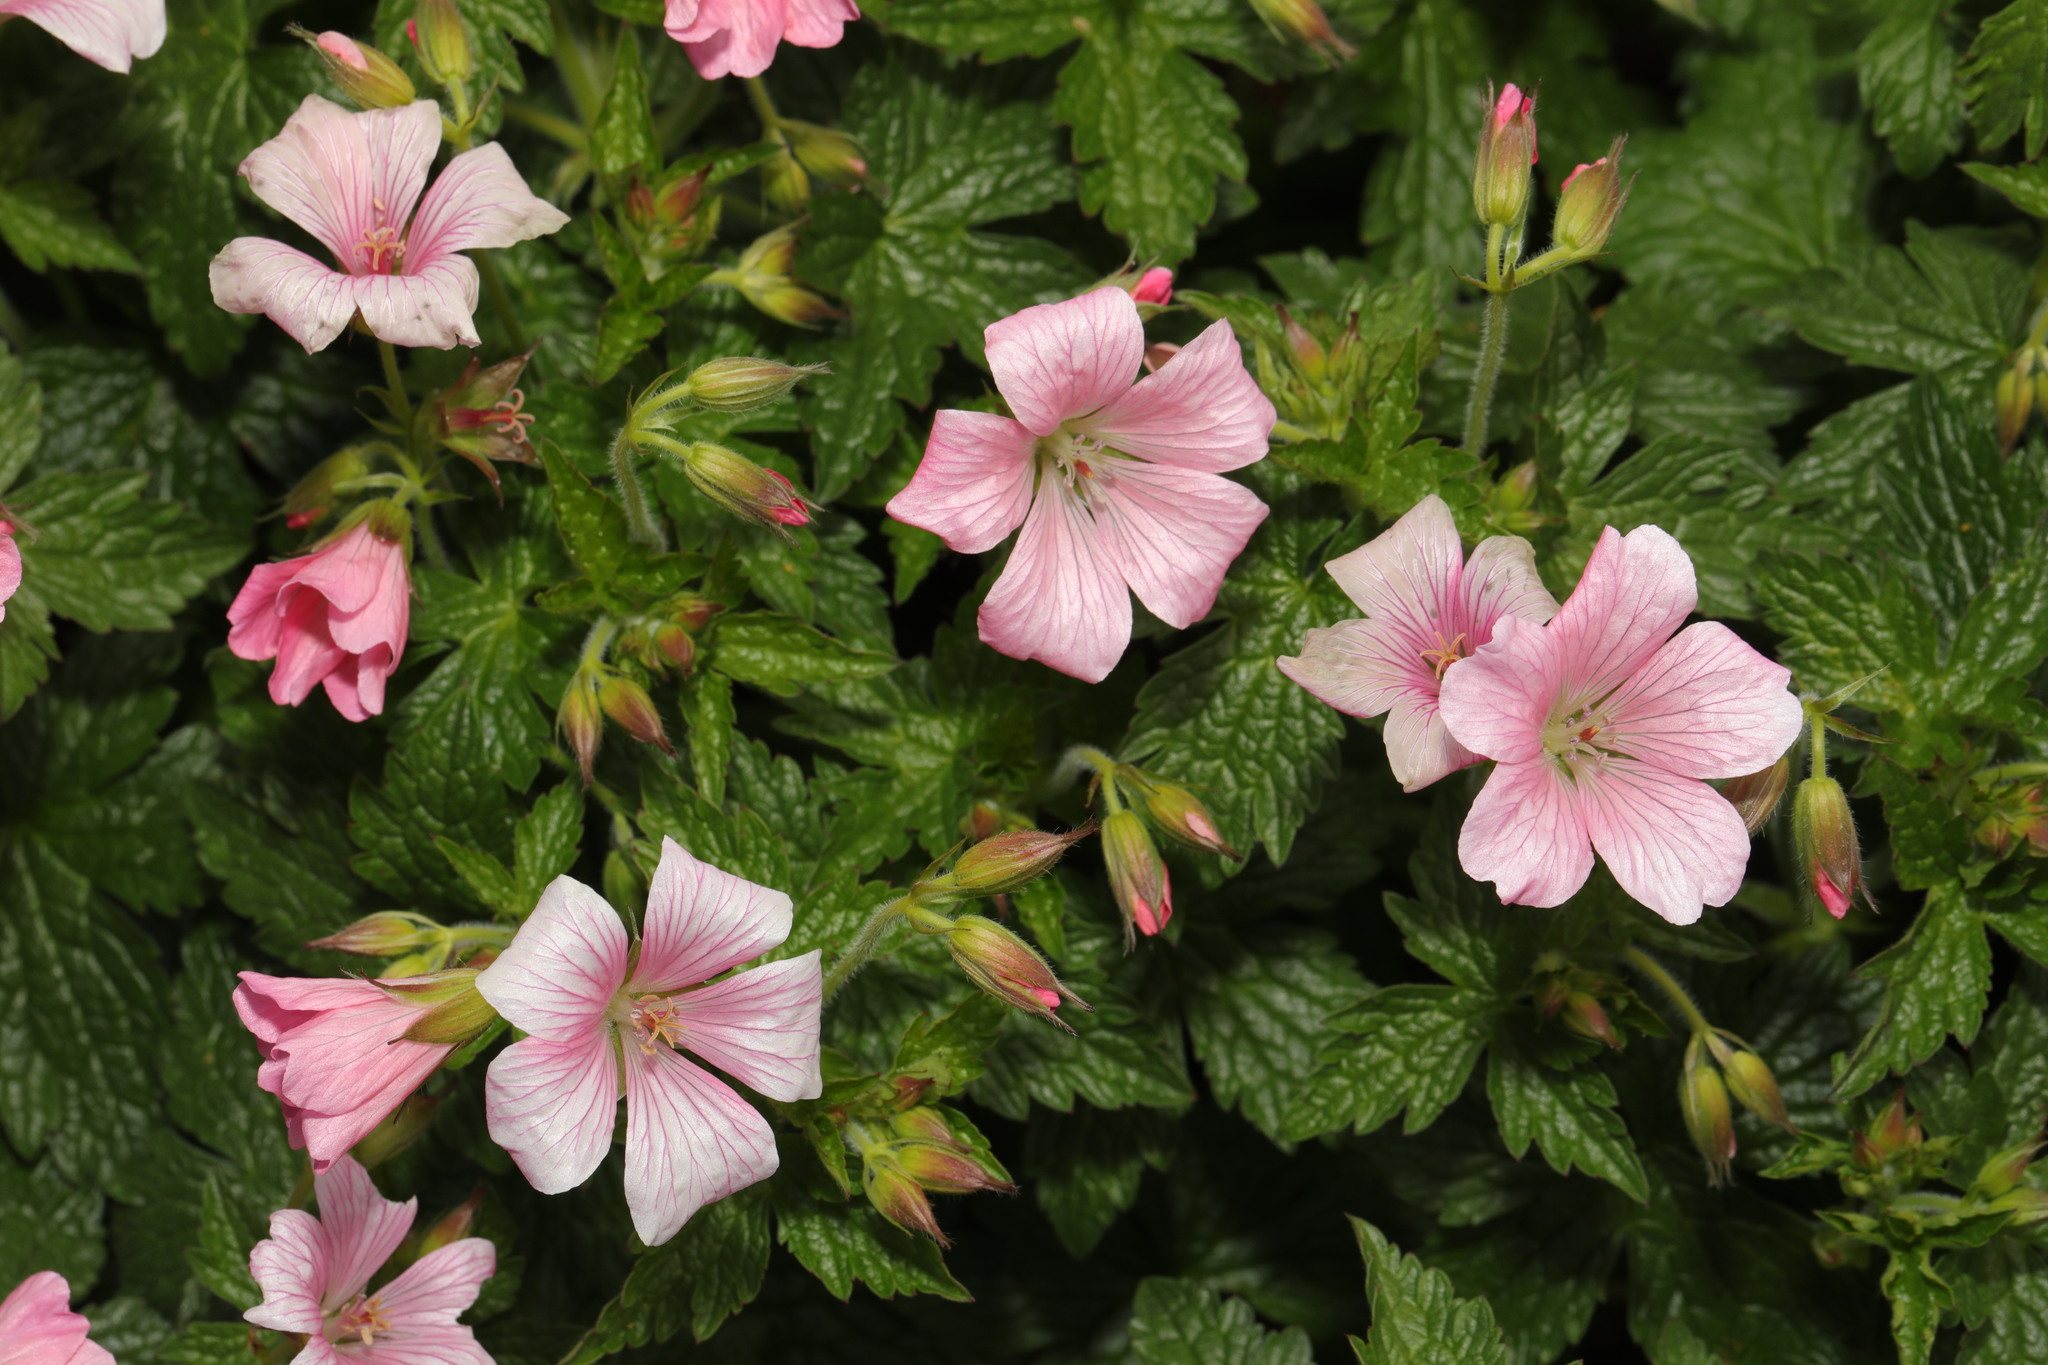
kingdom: Plantae
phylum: Tracheophyta
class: Magnoliopsida
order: Geraniales
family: Geraniaceae
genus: Geranium
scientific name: Geranium oxonianum
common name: Druce's crane's-bill
